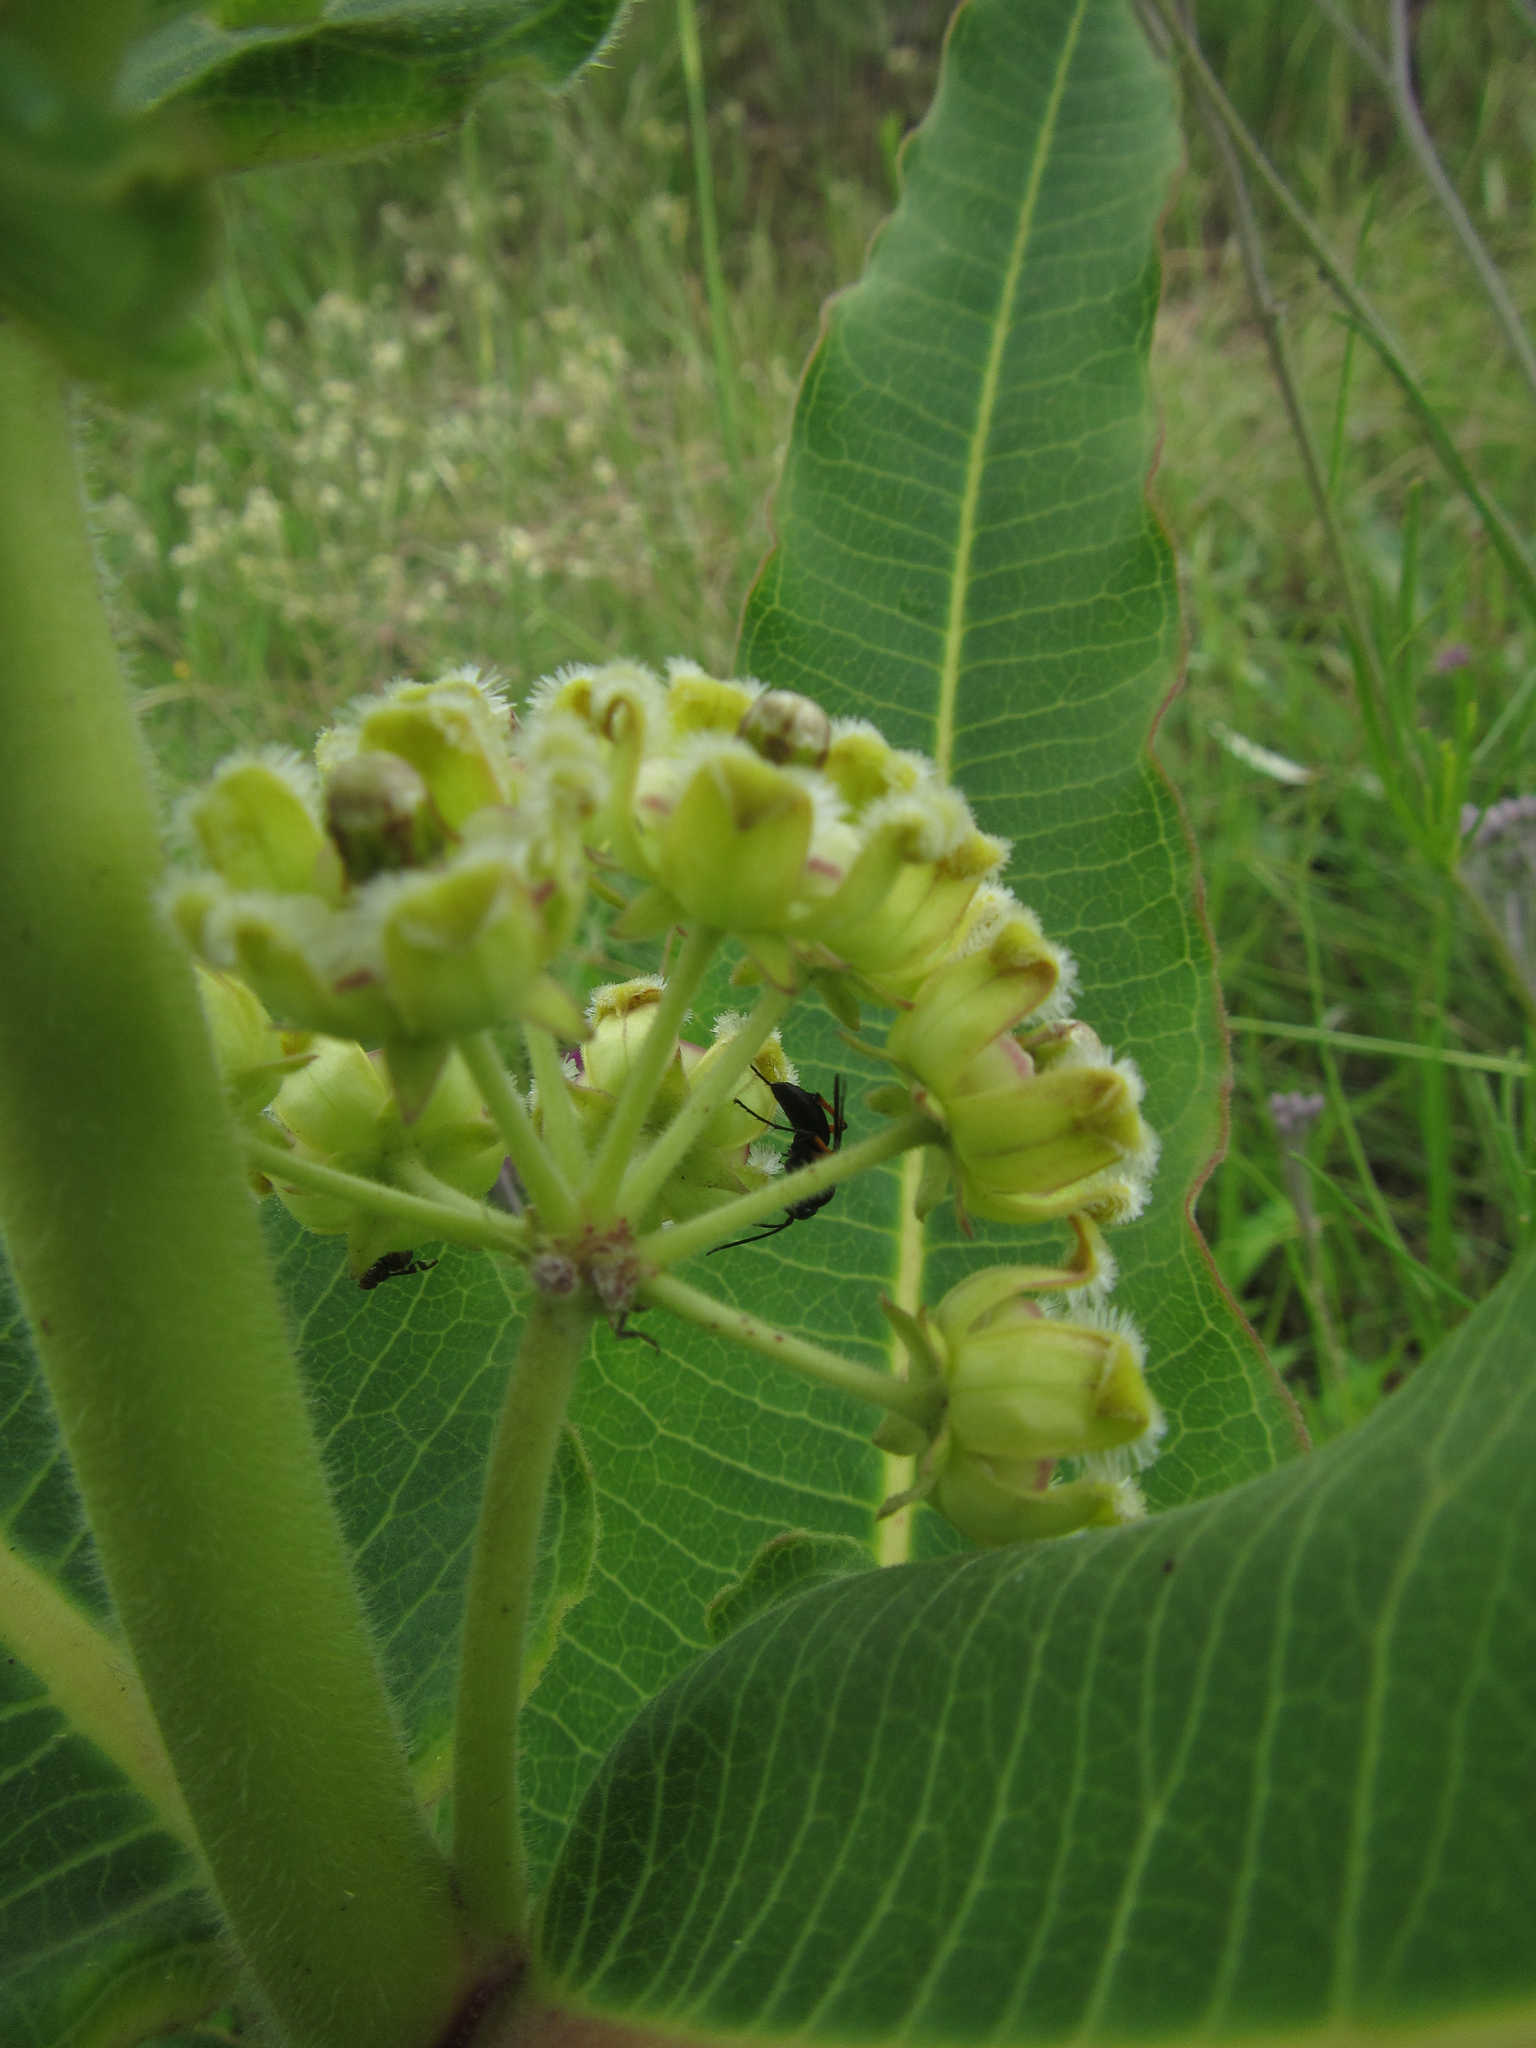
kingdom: Plantae
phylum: Tracheophyta
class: Magnoliopsida
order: Gentianales
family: Apocynaceae
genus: Xysmalobium
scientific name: Xysmalobium undulatum
